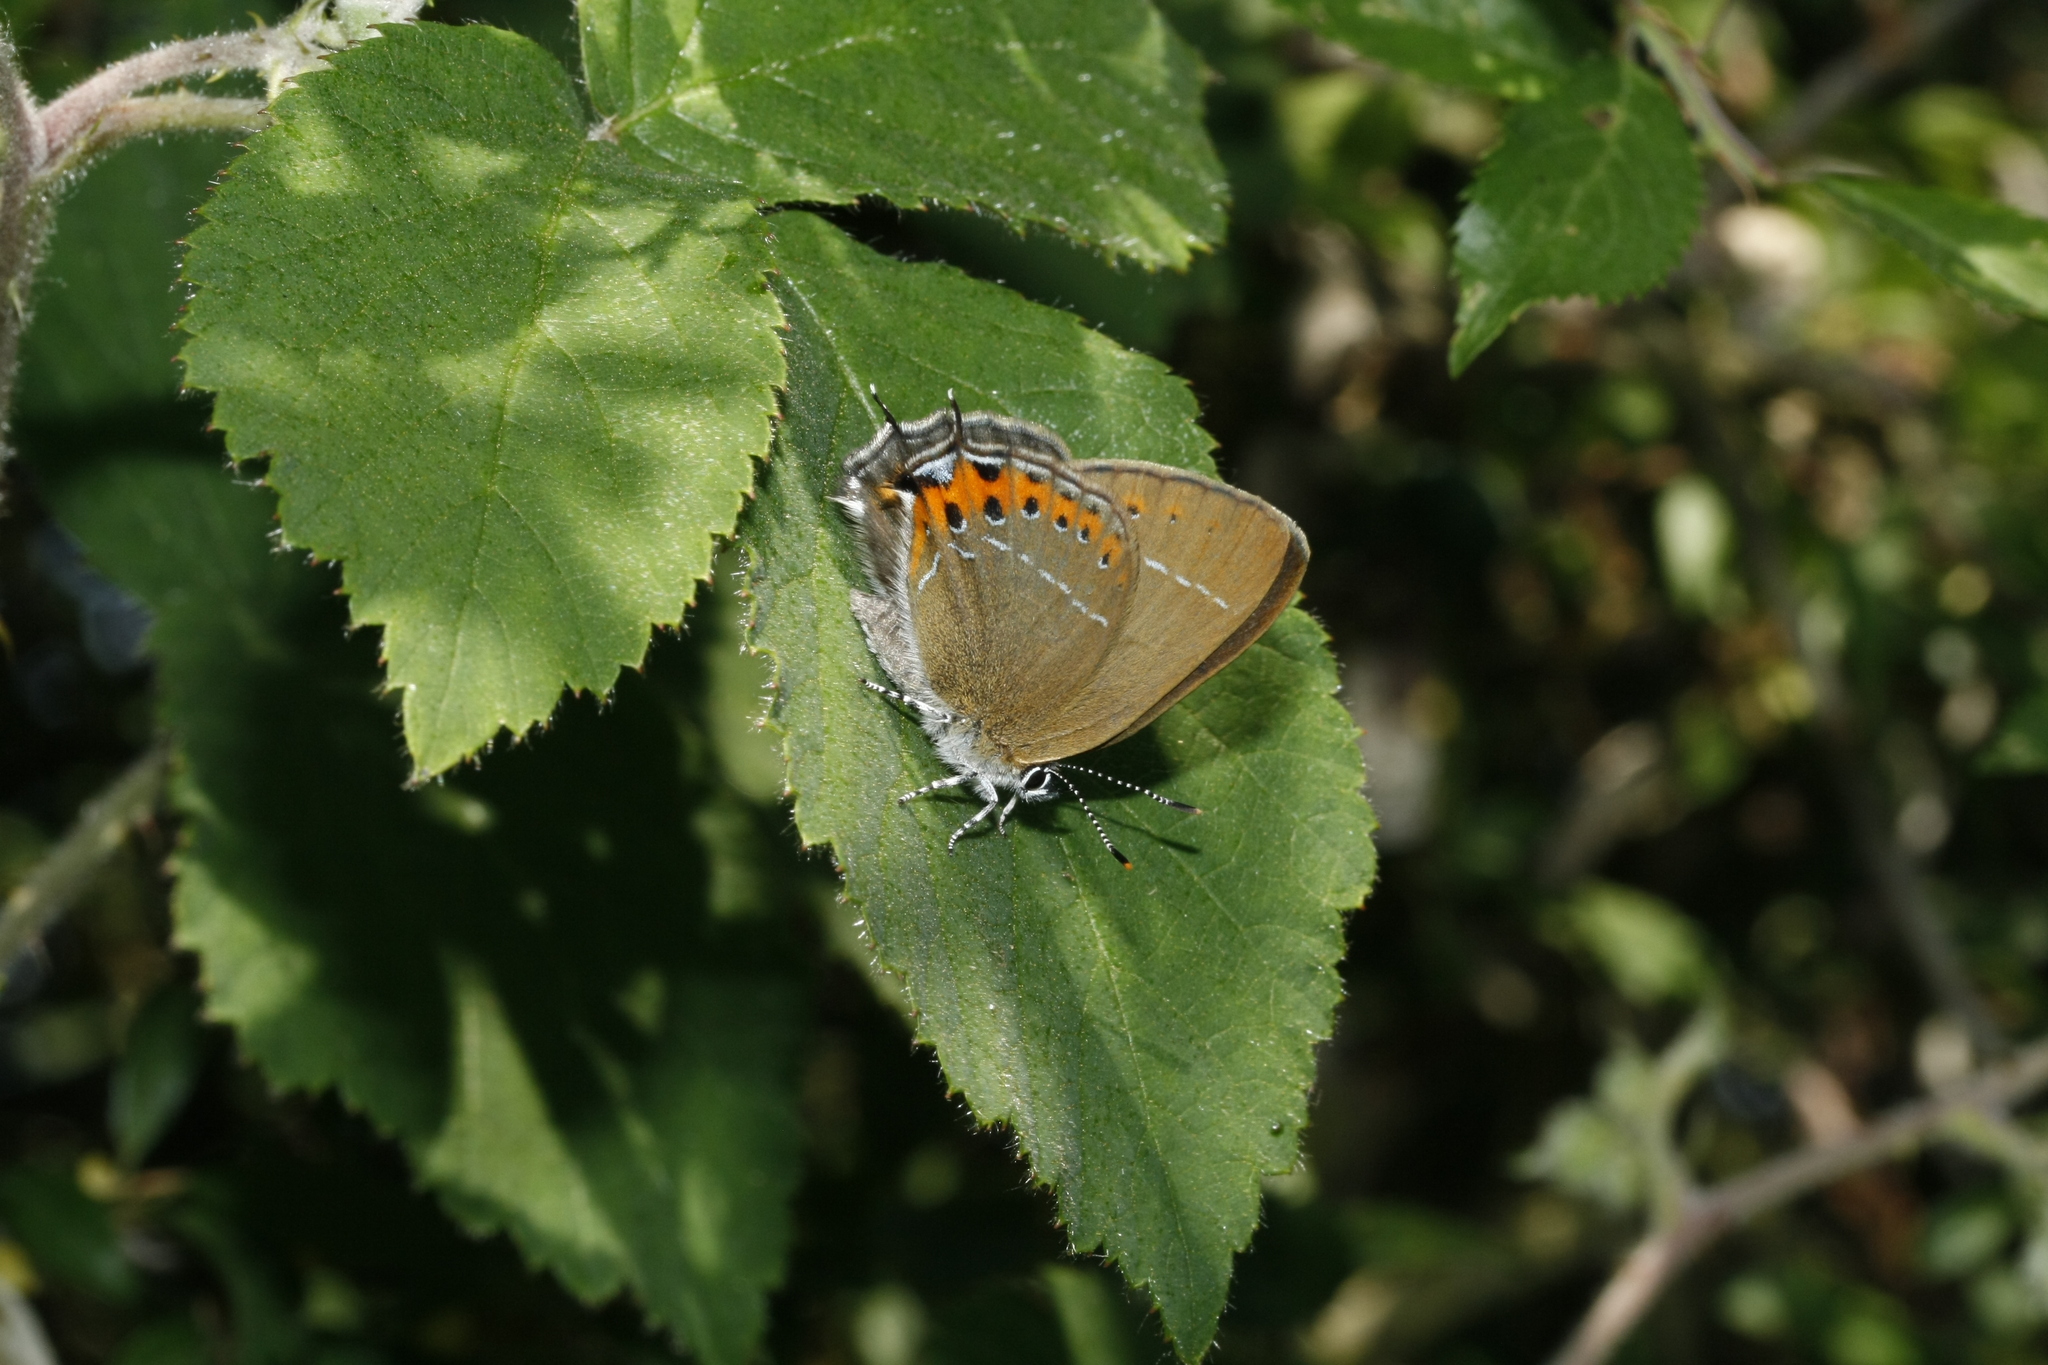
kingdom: Animalia
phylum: Arthropoda
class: Insecta
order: Lepidoptera
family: Lycaenidae
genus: Fixsenia
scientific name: Fixsenia pruni
